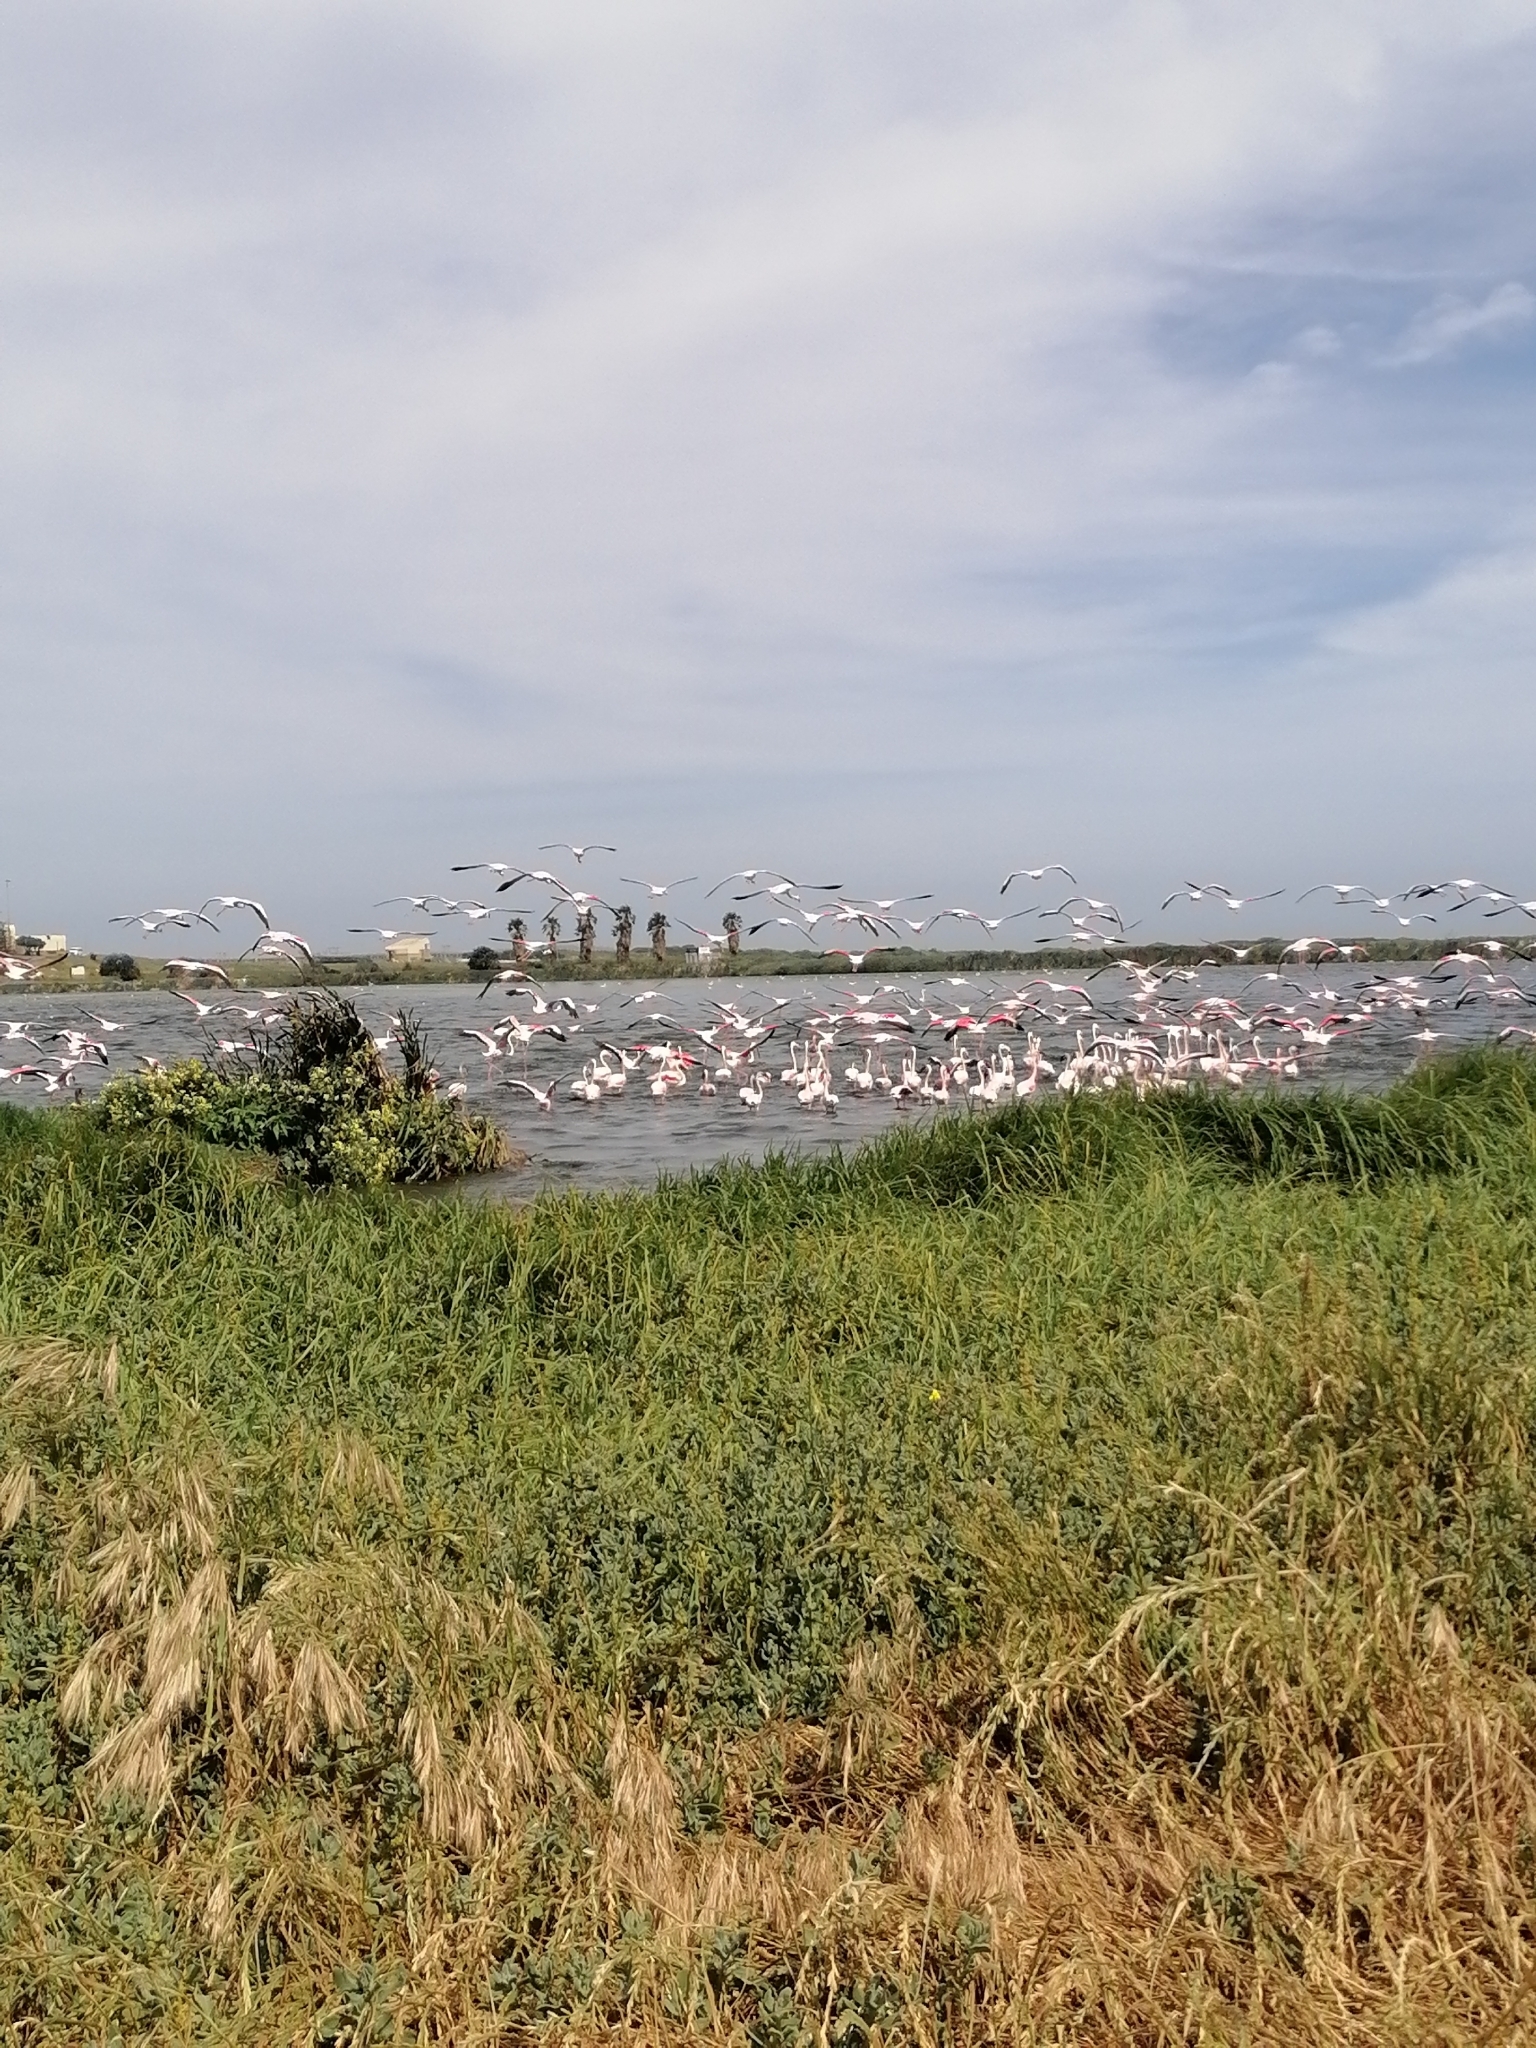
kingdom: Animalia
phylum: Chordata
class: Aves
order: Phoenicopteriformes
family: Phoenicopteridae
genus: Phoenicopterus
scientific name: Phoenicopterus roseus
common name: Greater flamingo
